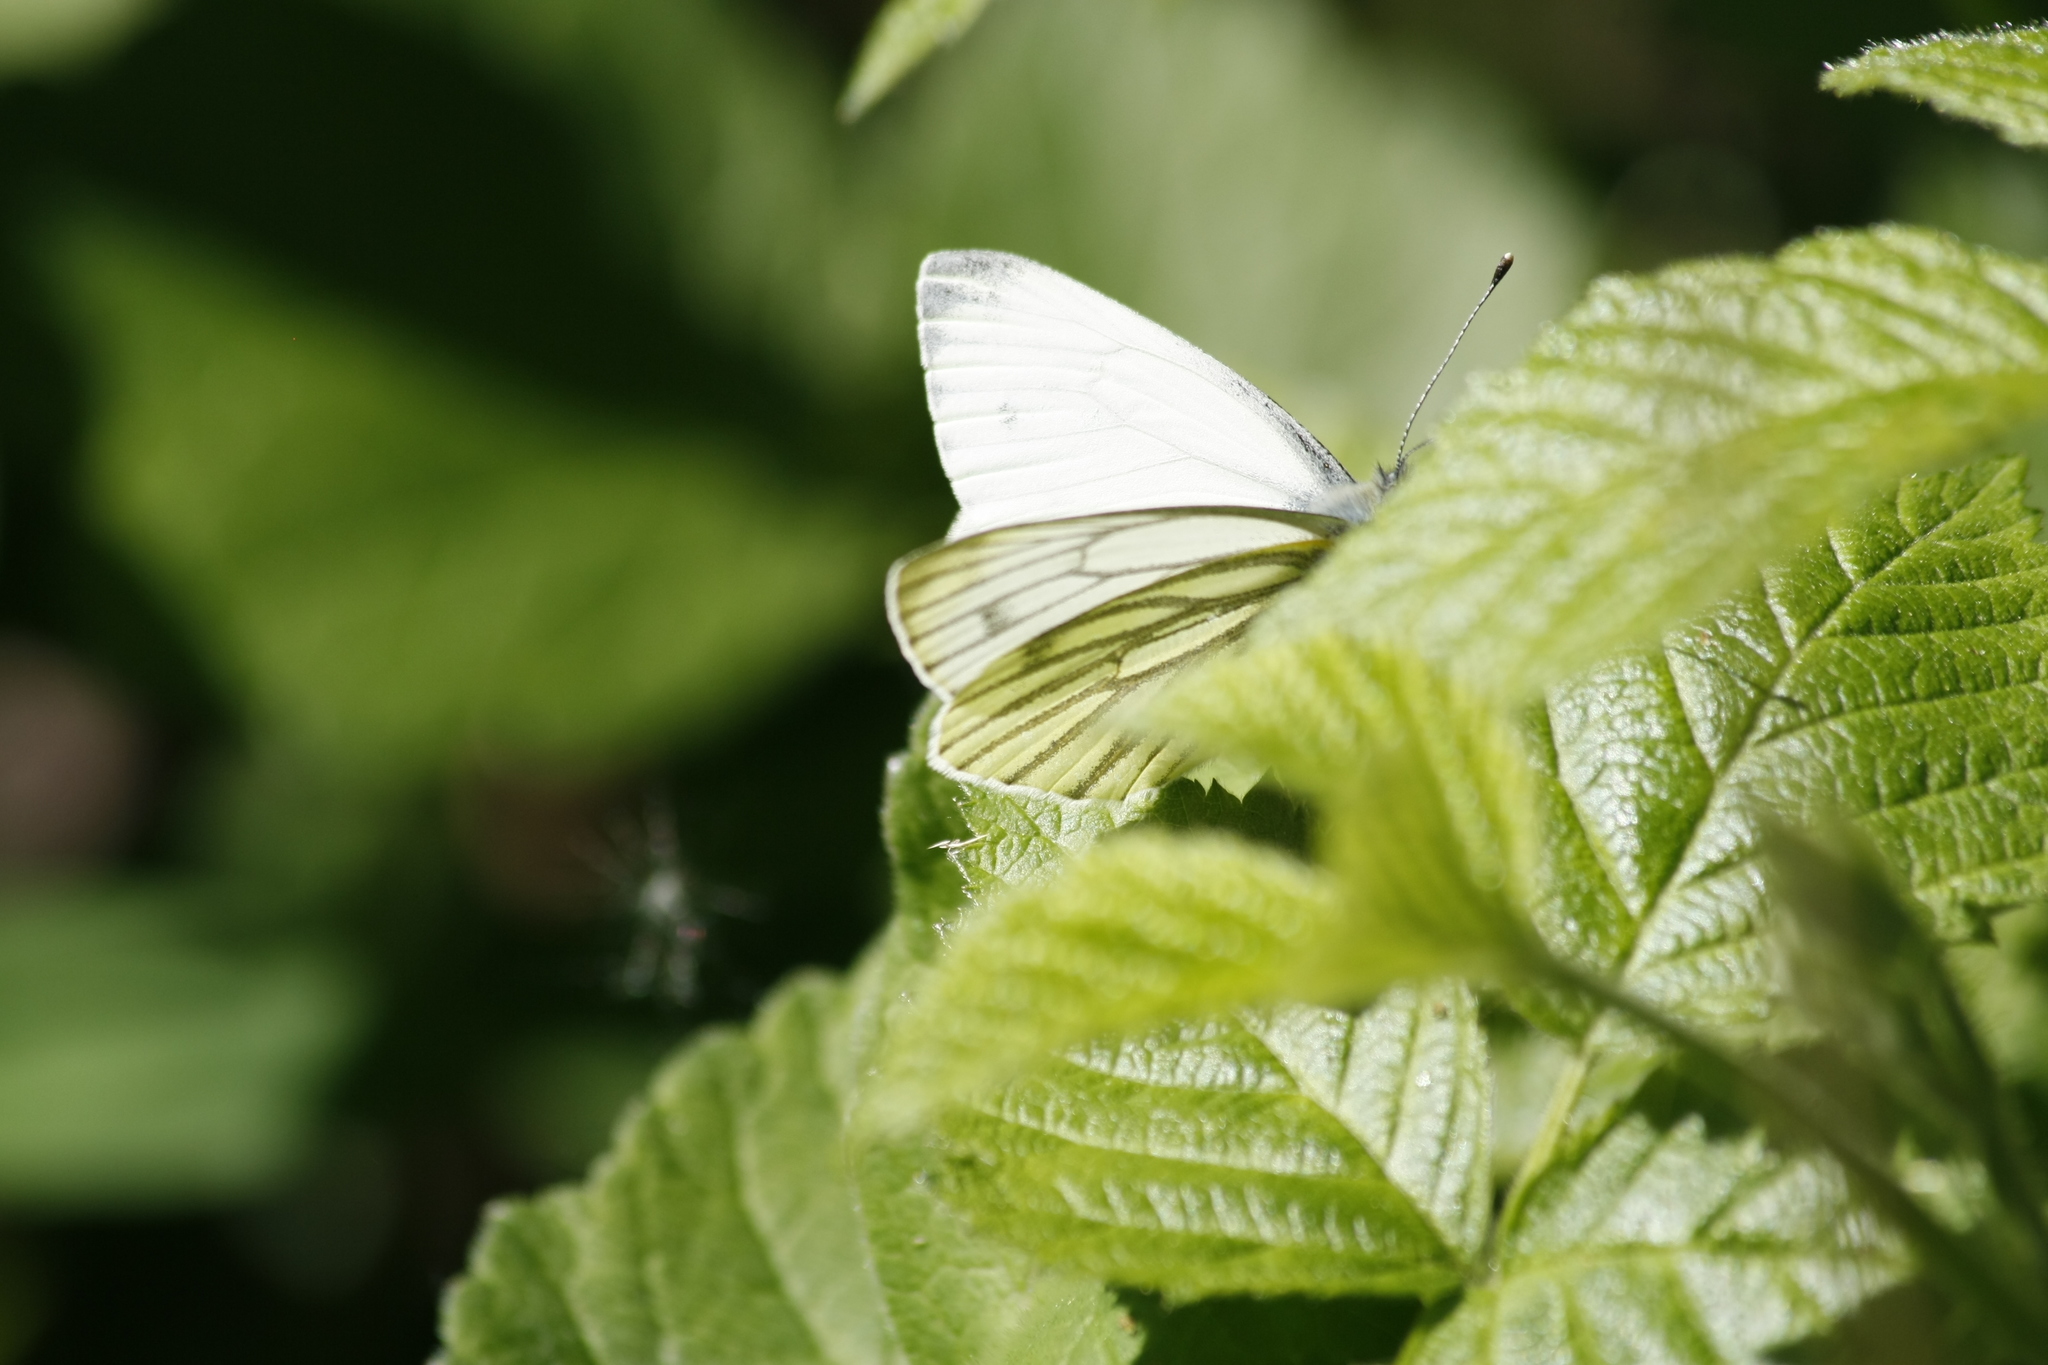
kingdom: Animalia
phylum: Arthropoda
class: Insecta
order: Lepidoptera
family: Pieridae
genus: Pieris
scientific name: Pieris napi
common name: Green-veined white
